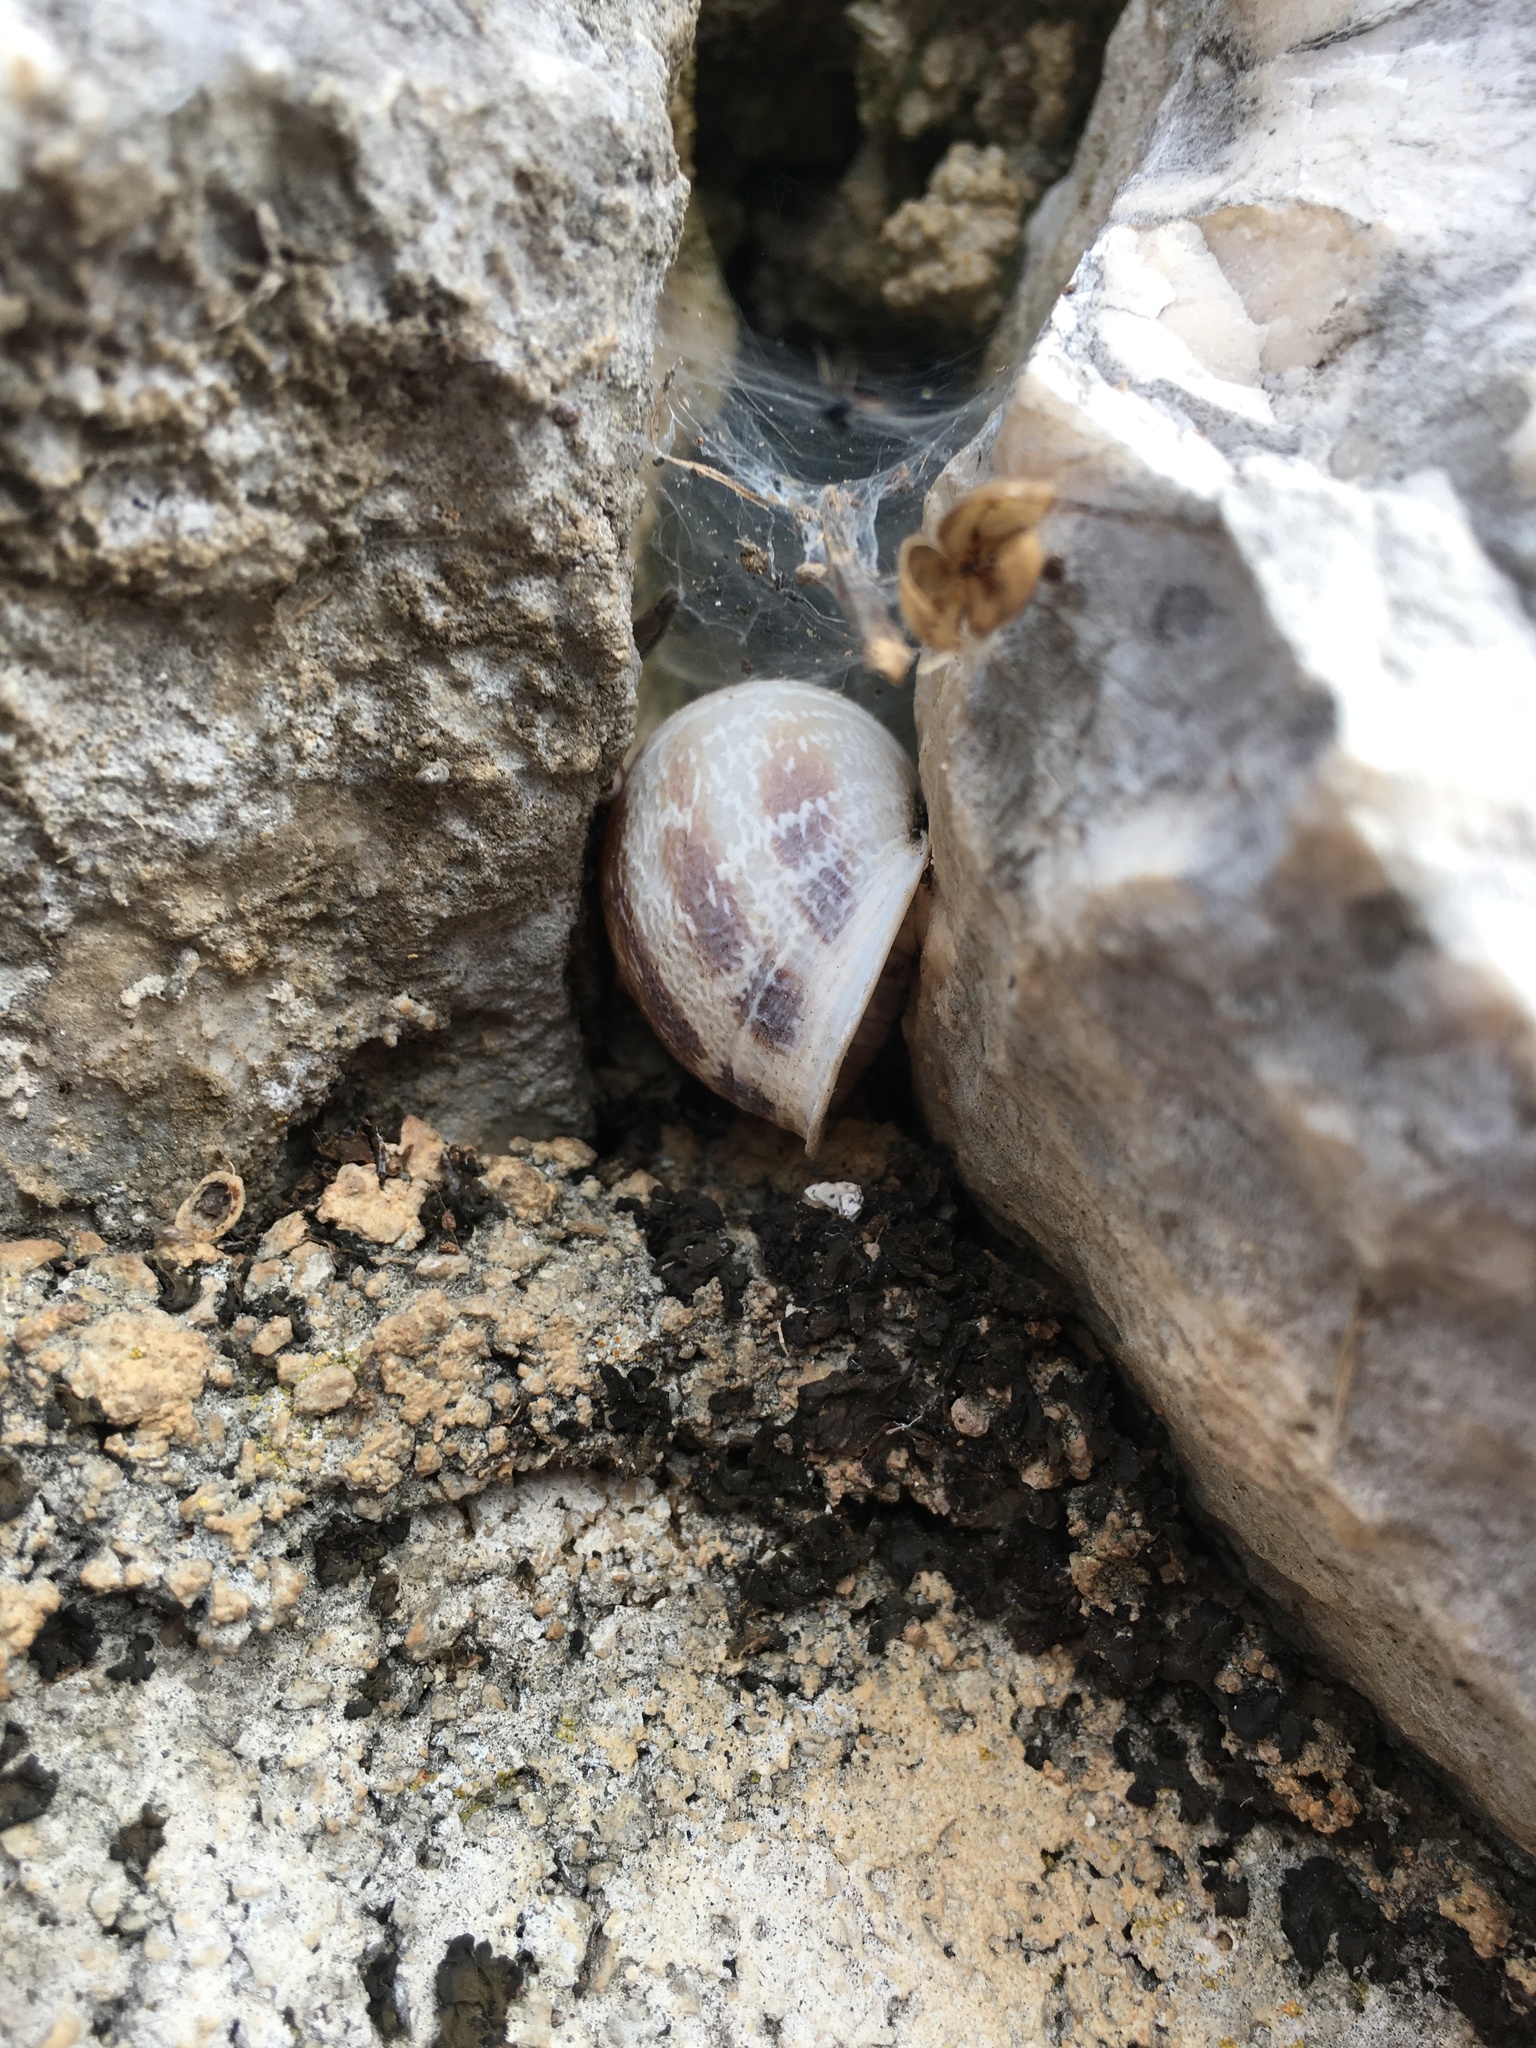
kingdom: Animalia
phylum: Mollusca
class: Gastropoda
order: Stylommatophora
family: Helicidae
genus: Cornu
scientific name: Cornu aspersum
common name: Brown garden snail
